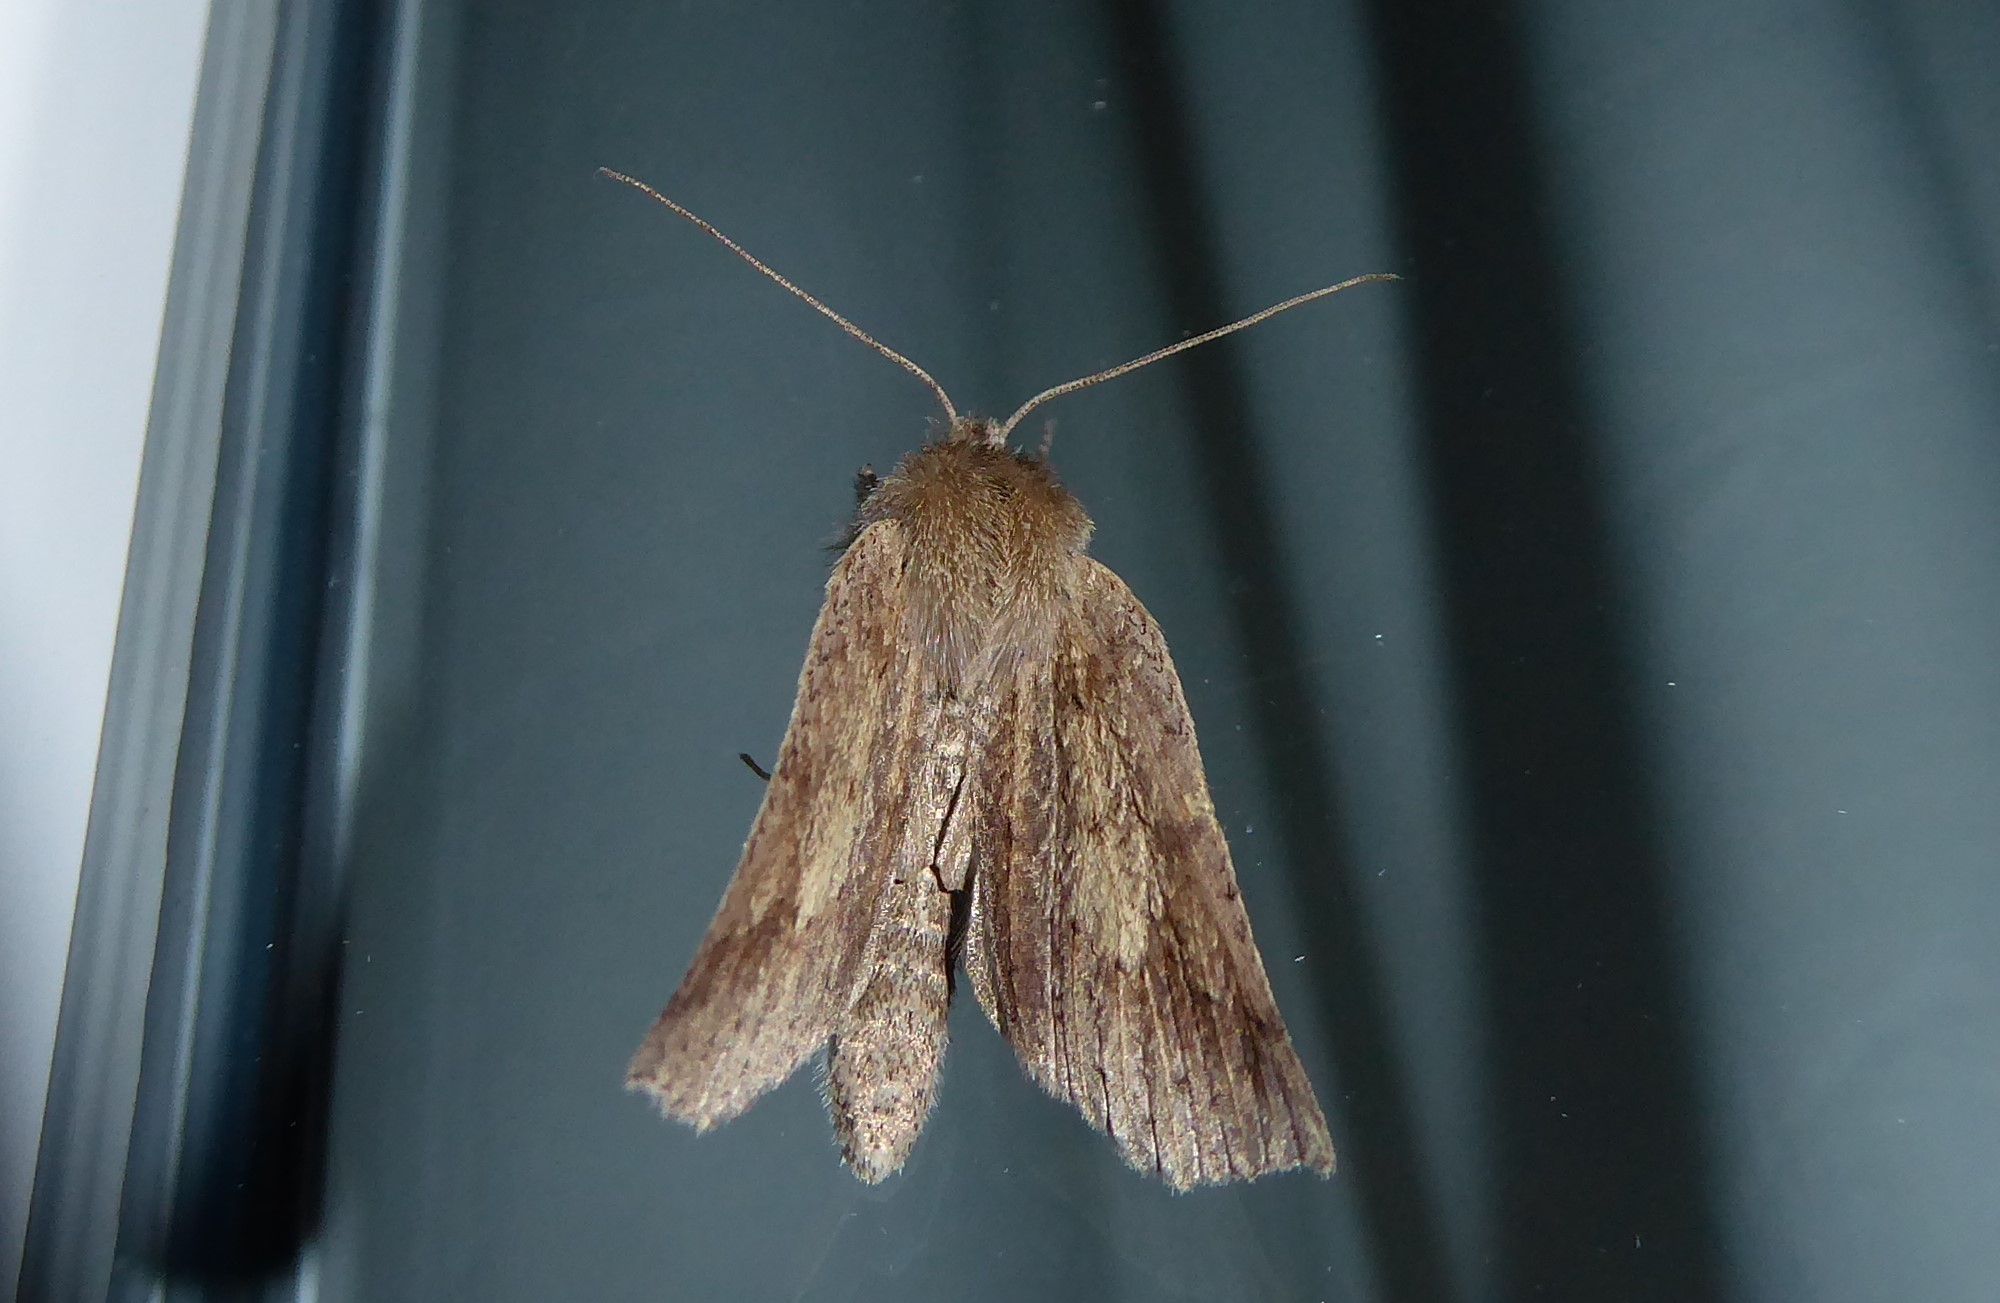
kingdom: Animalia
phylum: Arthropoda
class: Insecta
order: Lepidoptera
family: Geometridae
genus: Declana
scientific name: Declana leptomera
